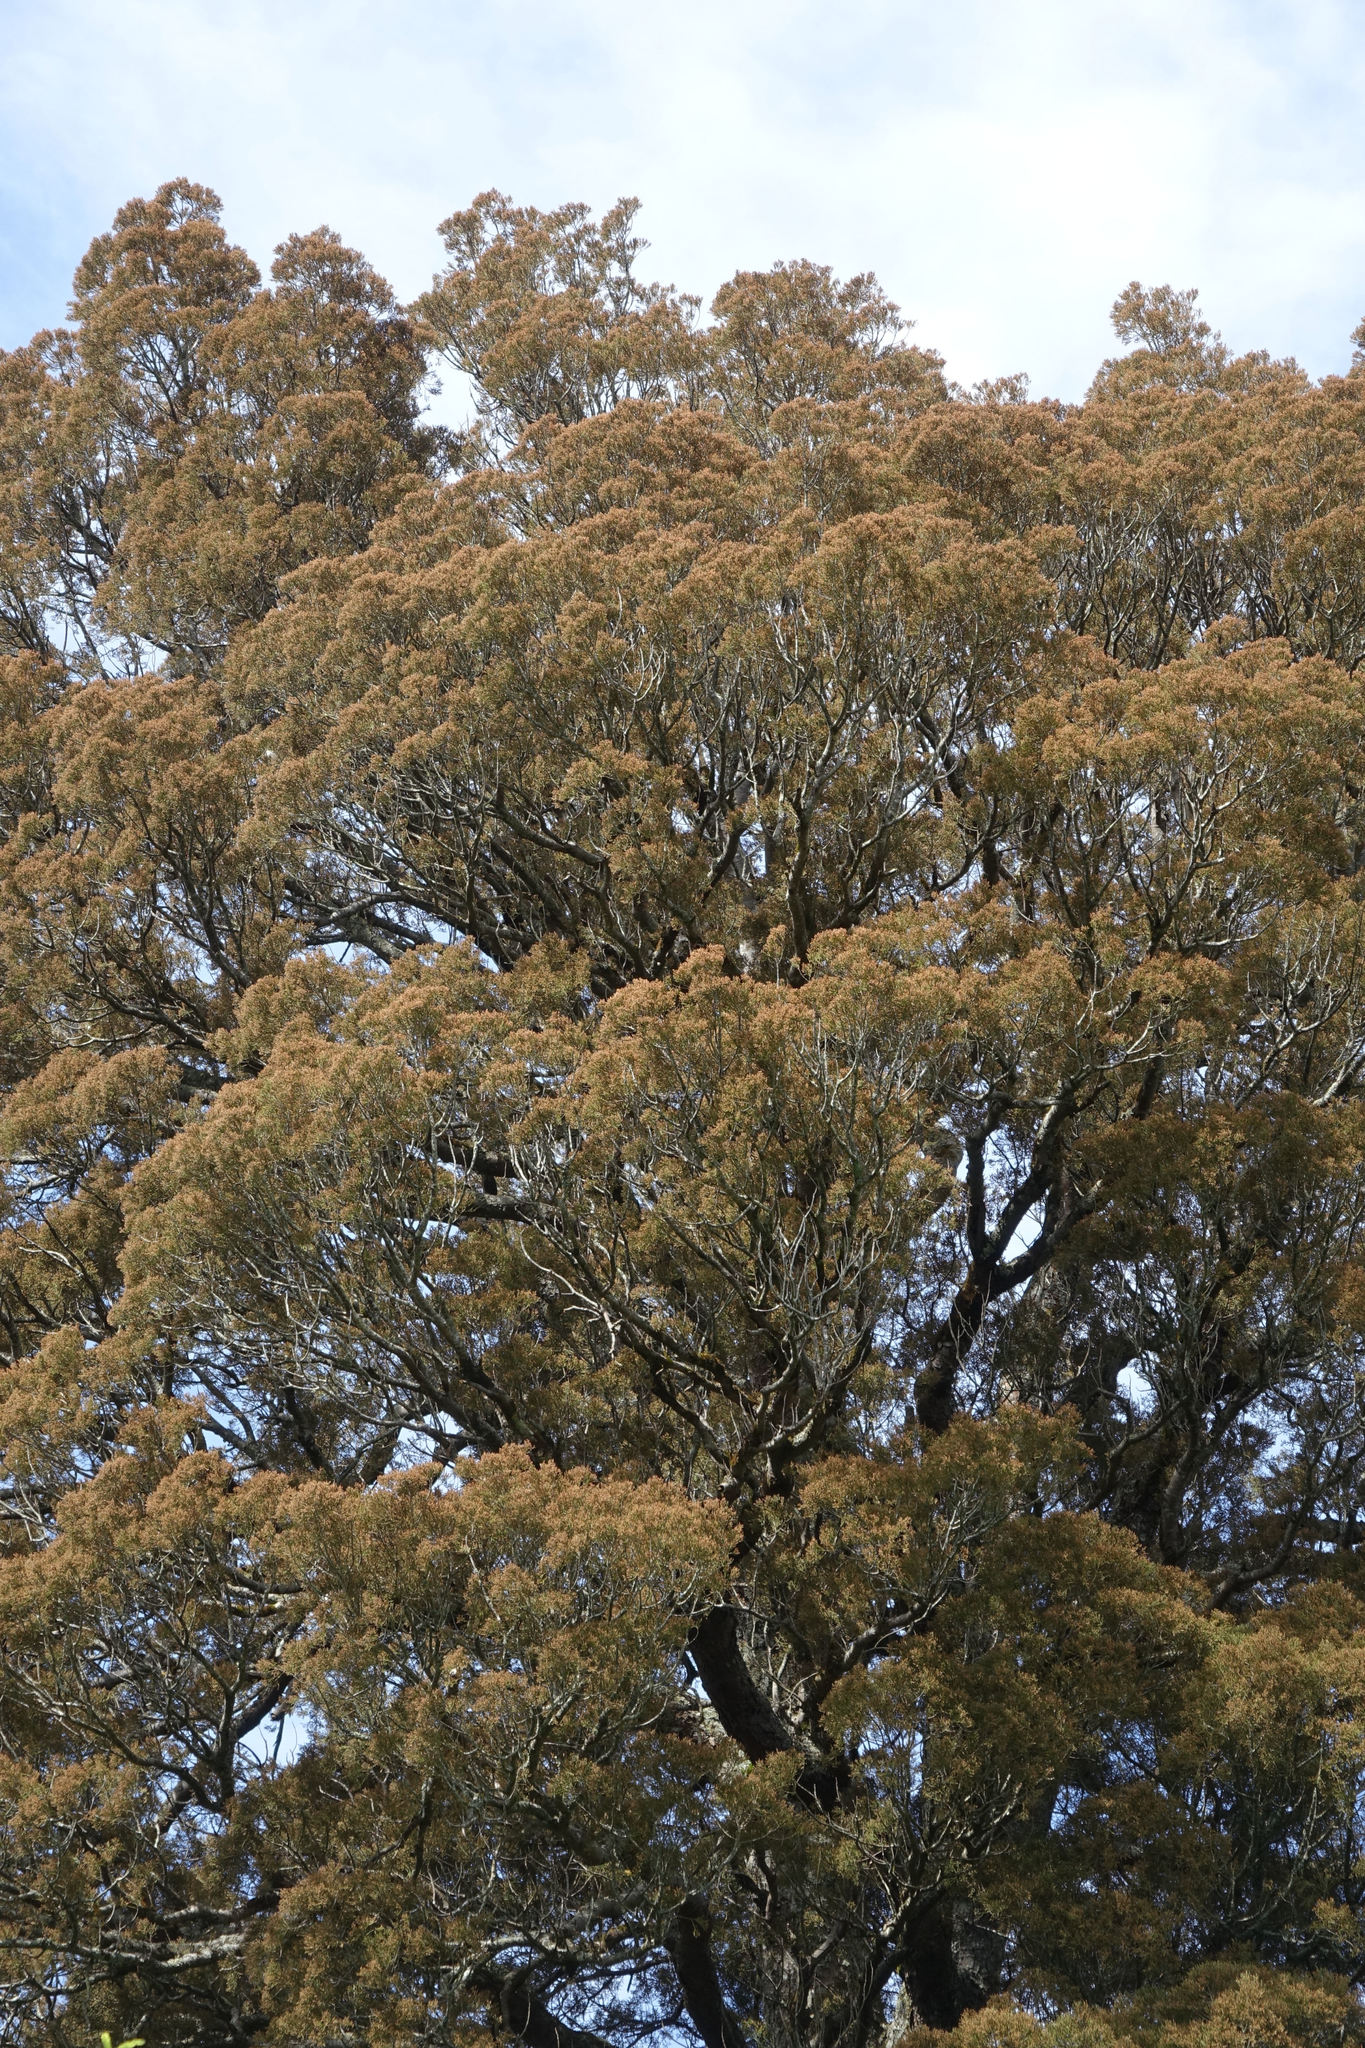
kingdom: Plantae
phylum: Tracheophyta
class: Pinopsida
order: Pinales
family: Podocarpaceae
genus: Dacrycarpus
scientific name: Dacrycarpus dacrydioides
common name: White pine
